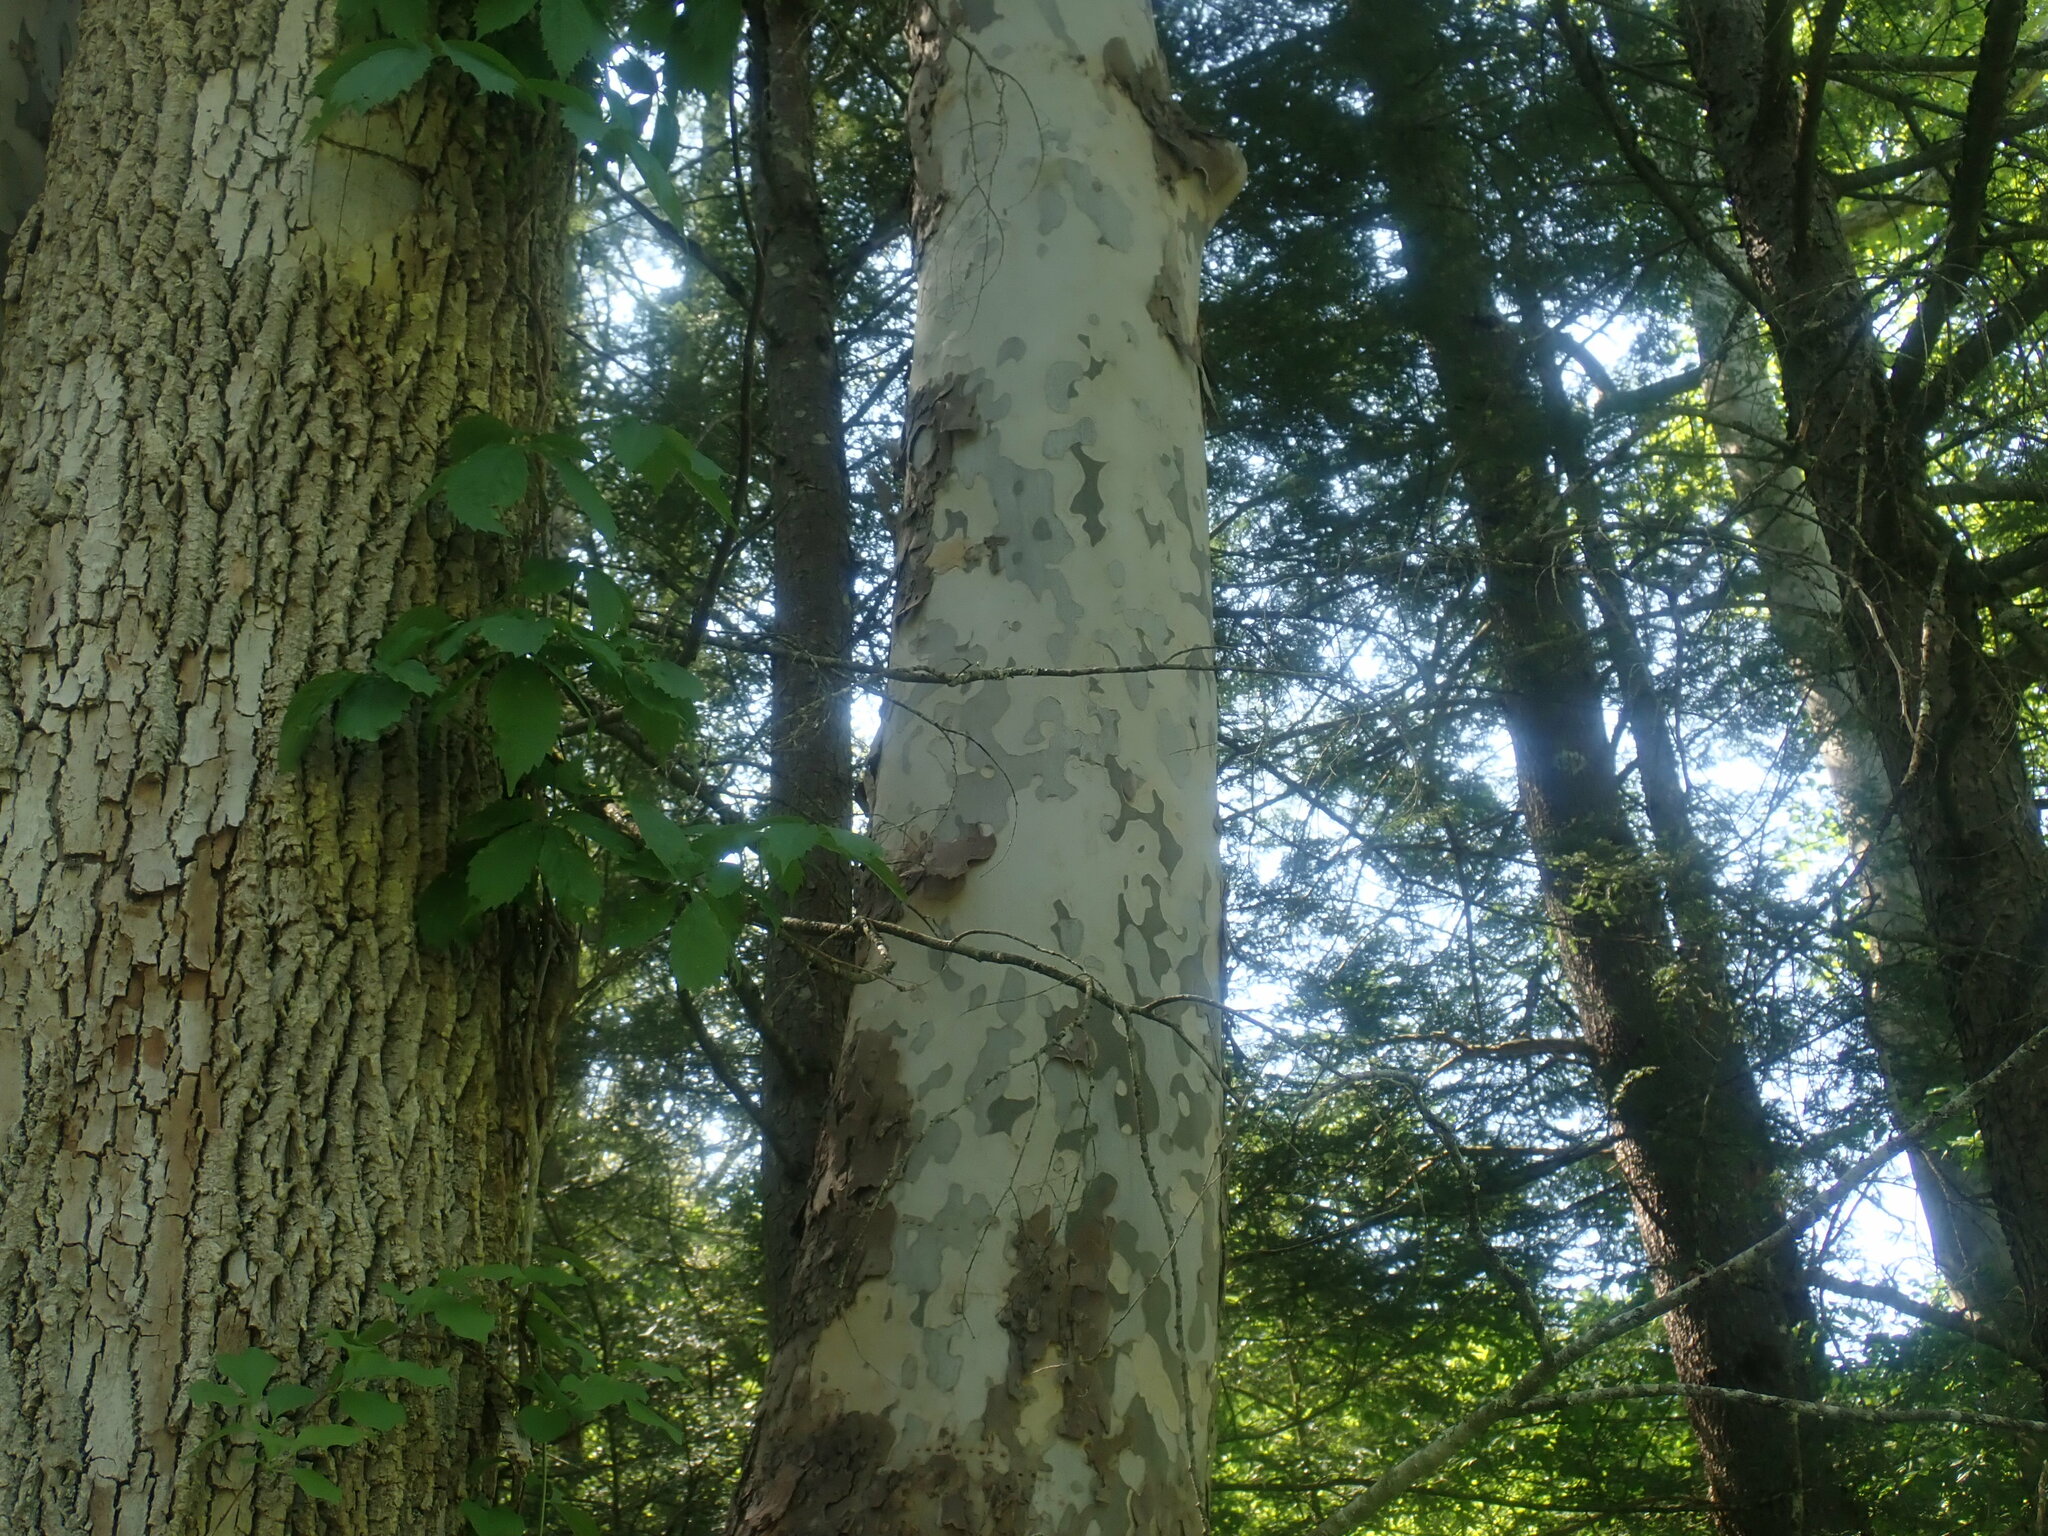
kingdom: Plantae
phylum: Tracheophyta
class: Magnoliopsida
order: Proteales
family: Platanaceae
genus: Platanus
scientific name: Platanus occidentalis
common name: American sycamore
